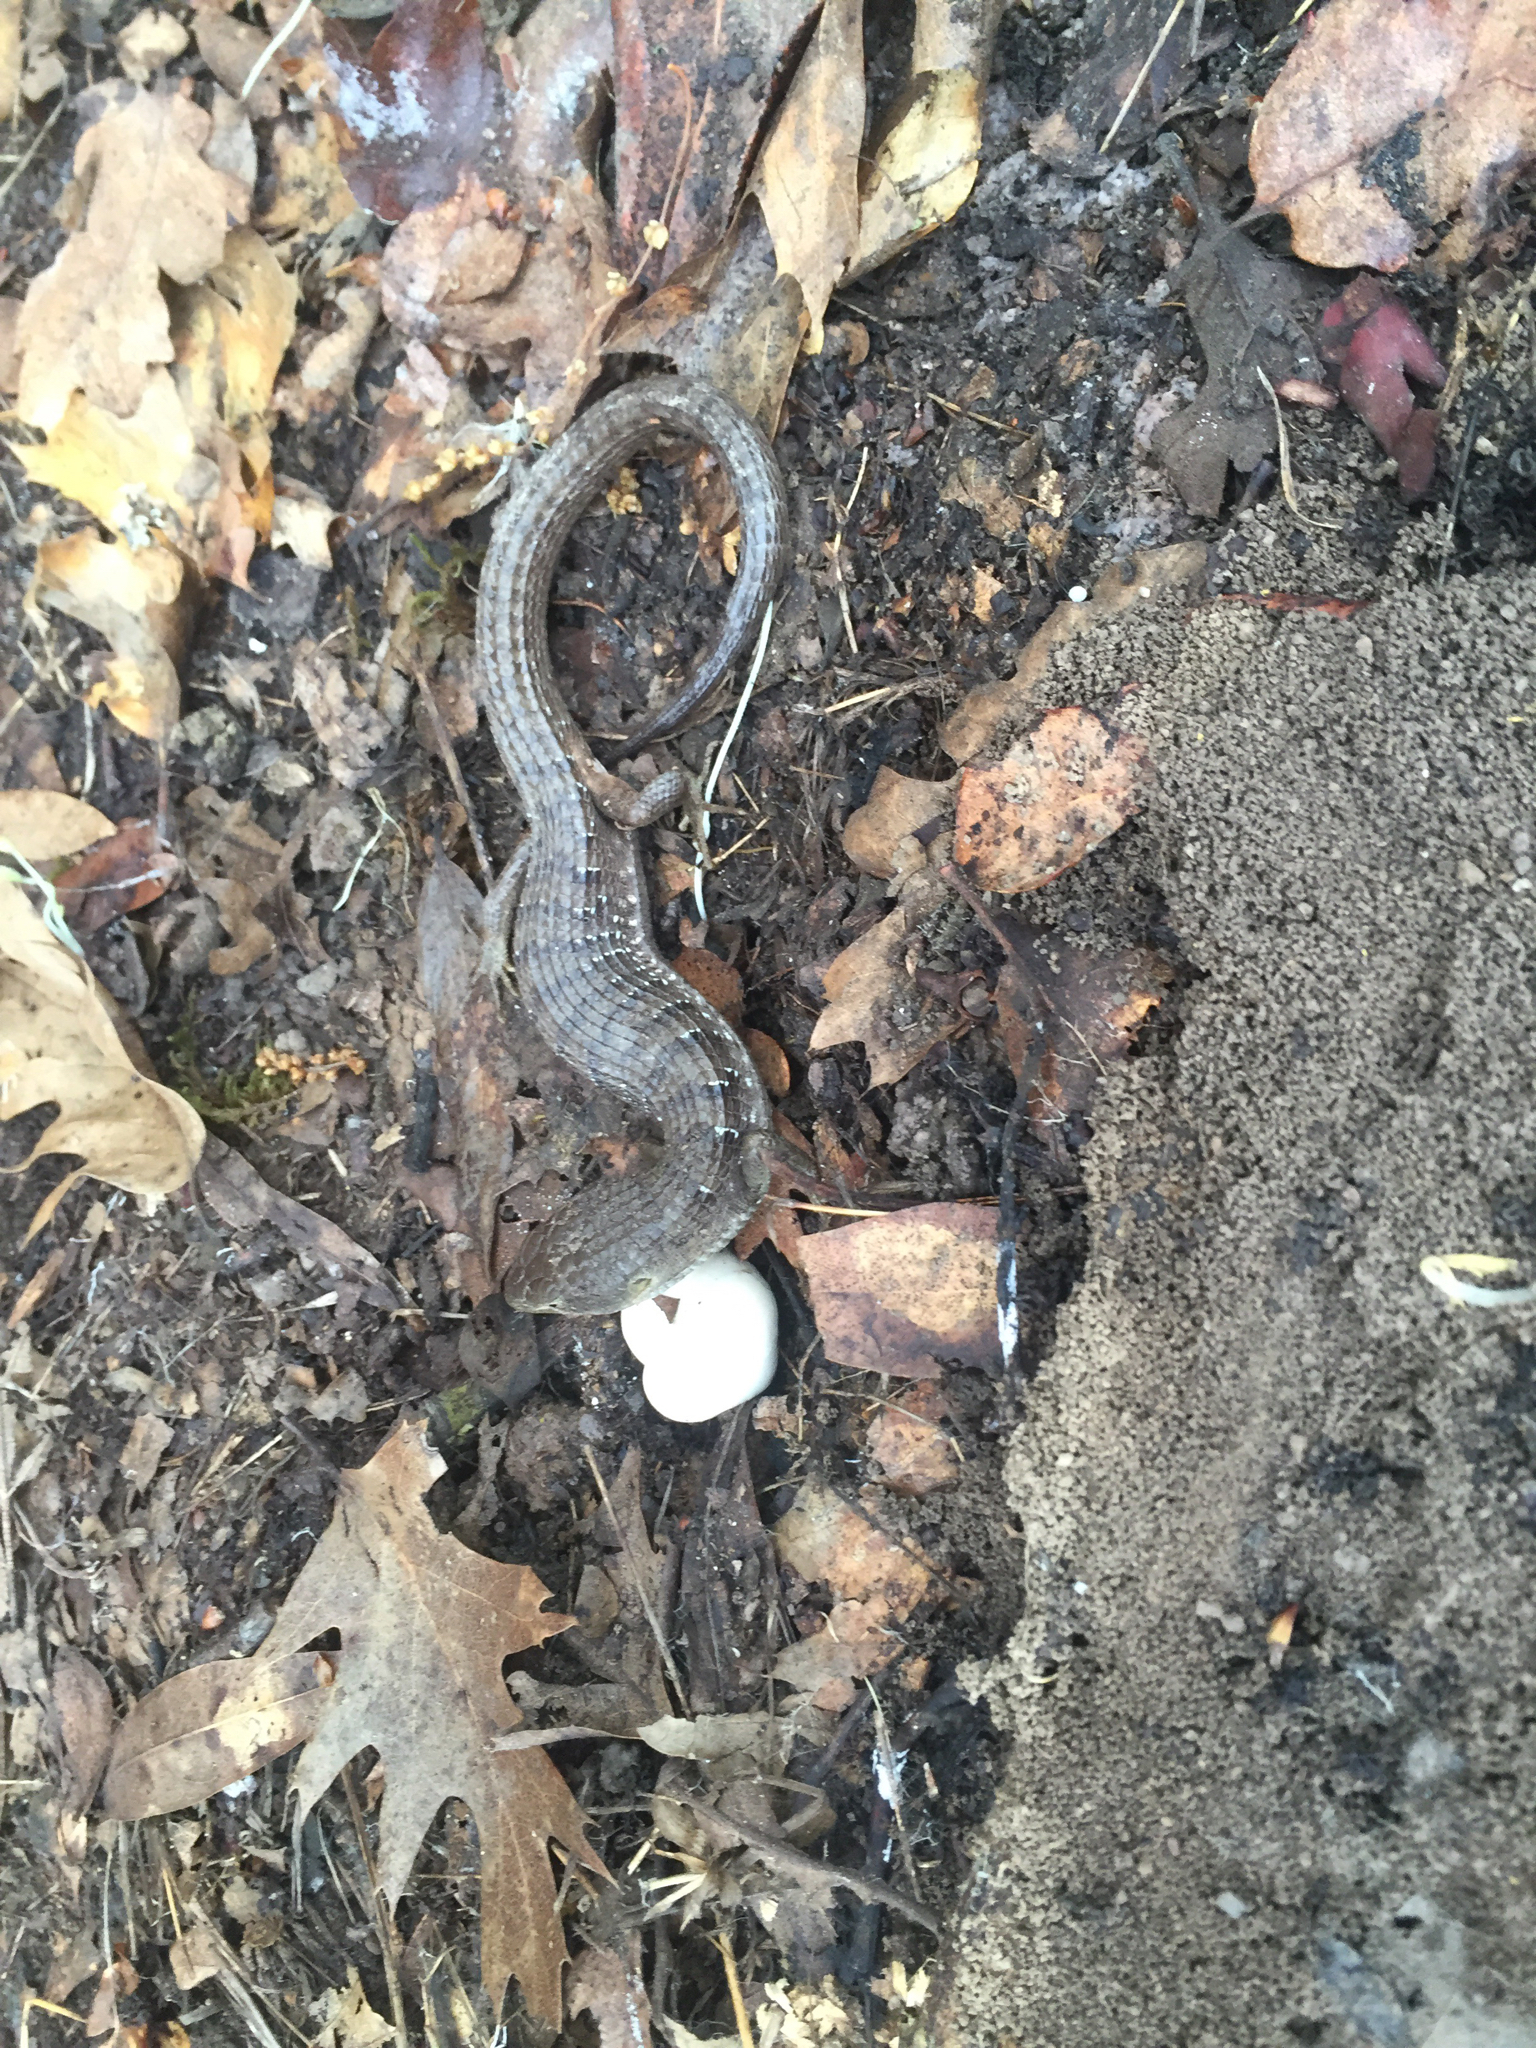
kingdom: Animalia
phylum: Chordata
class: Squamata
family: Anguidae
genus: Elgaria
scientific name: Elgaria multicarinata
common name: Southern alligator lizard
